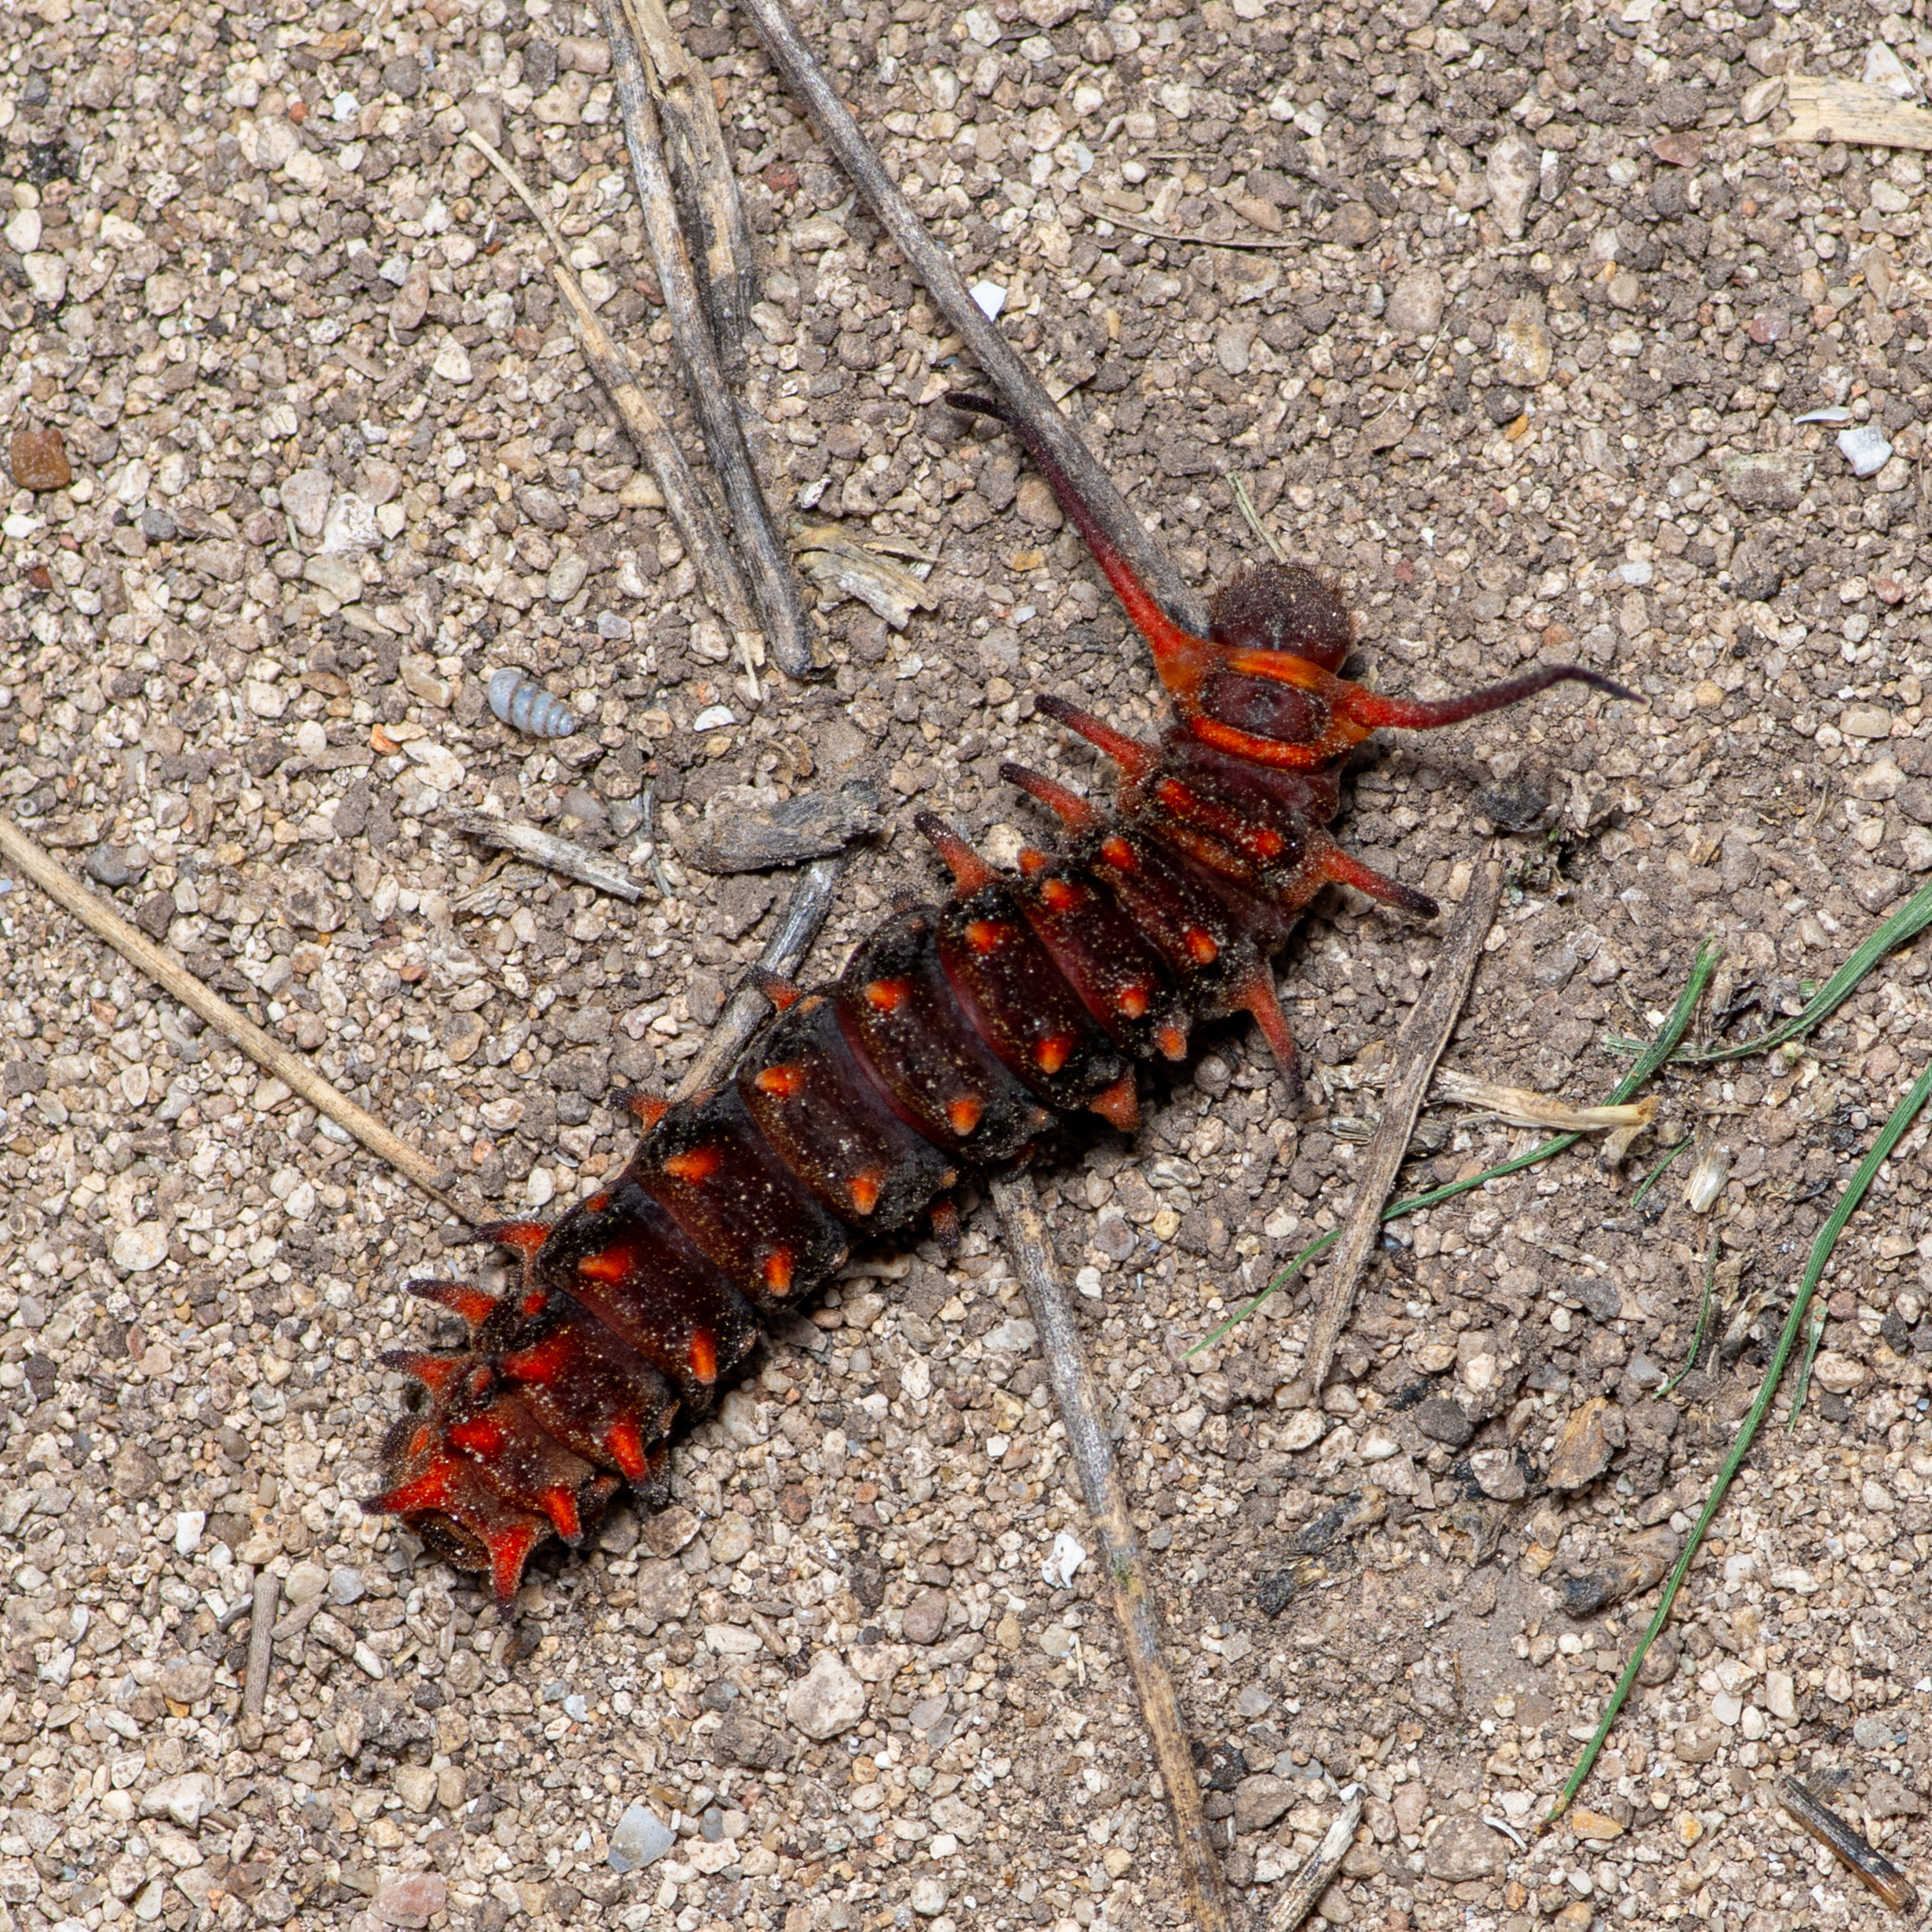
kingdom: Animalia
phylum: Arthropoda
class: Insecta
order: Lepidoptera
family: Papilionidae
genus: Battus
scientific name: Battus philenor
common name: Pipevine swallowtail
